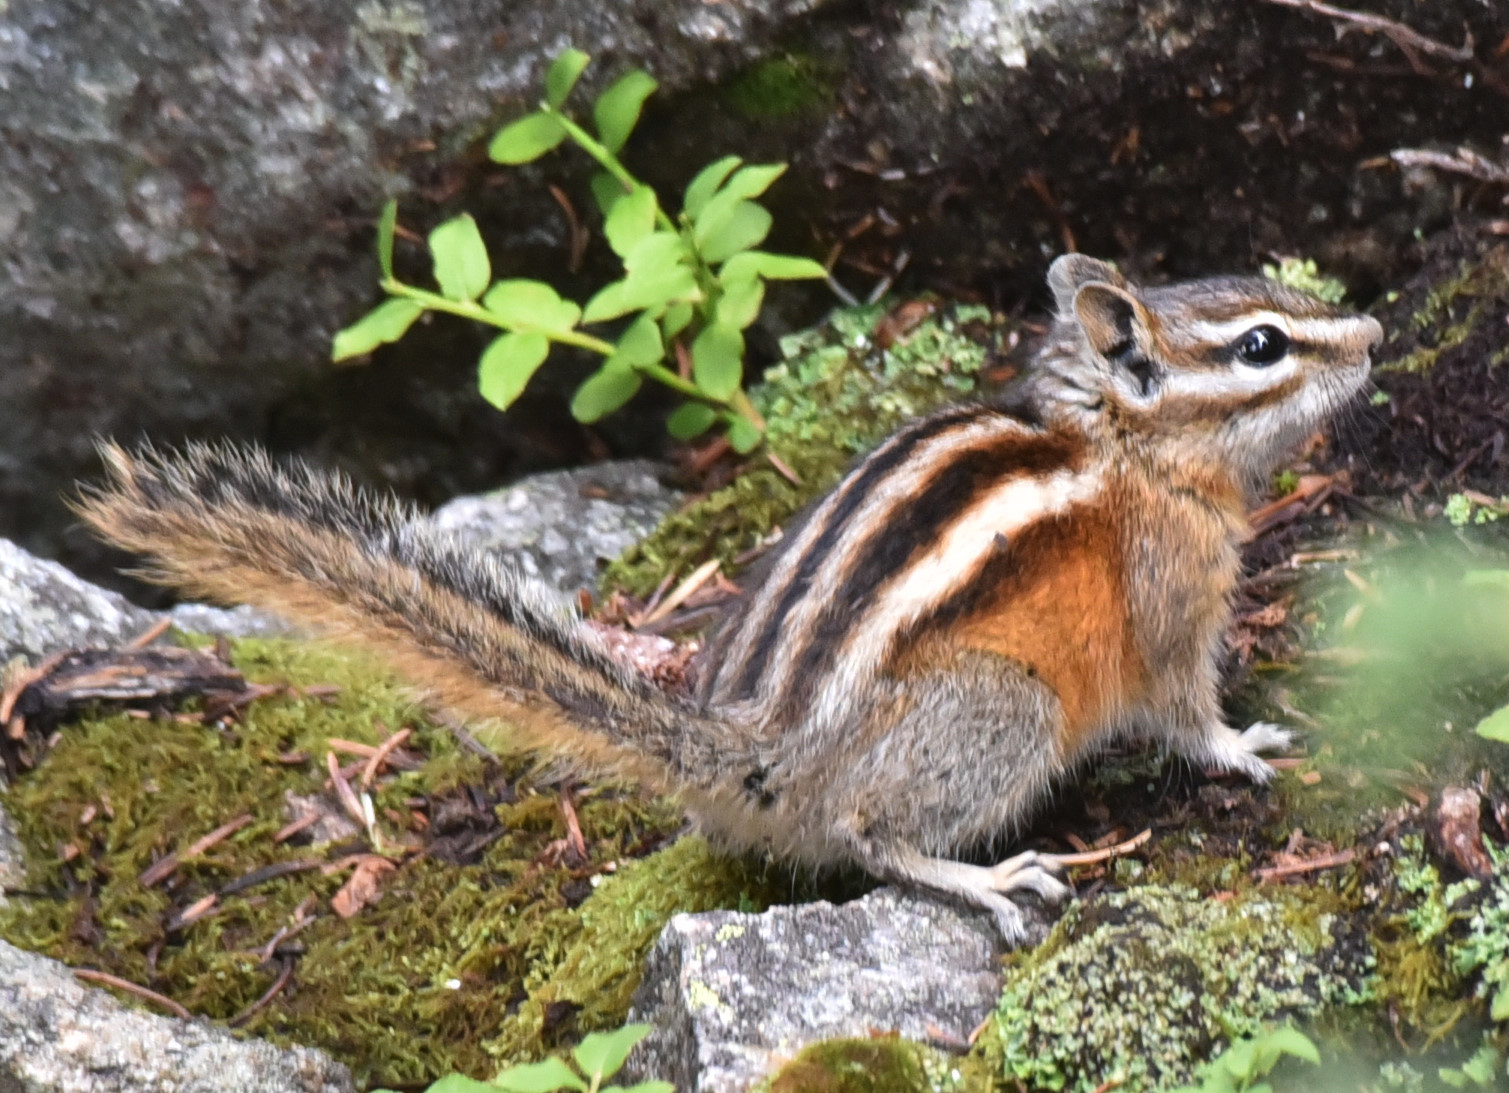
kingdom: Animalia
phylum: Chordata
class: Mammalia
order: Rodentia
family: Sciuridae
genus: Tamias
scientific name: Tamias minimus
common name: Least chipmunk
